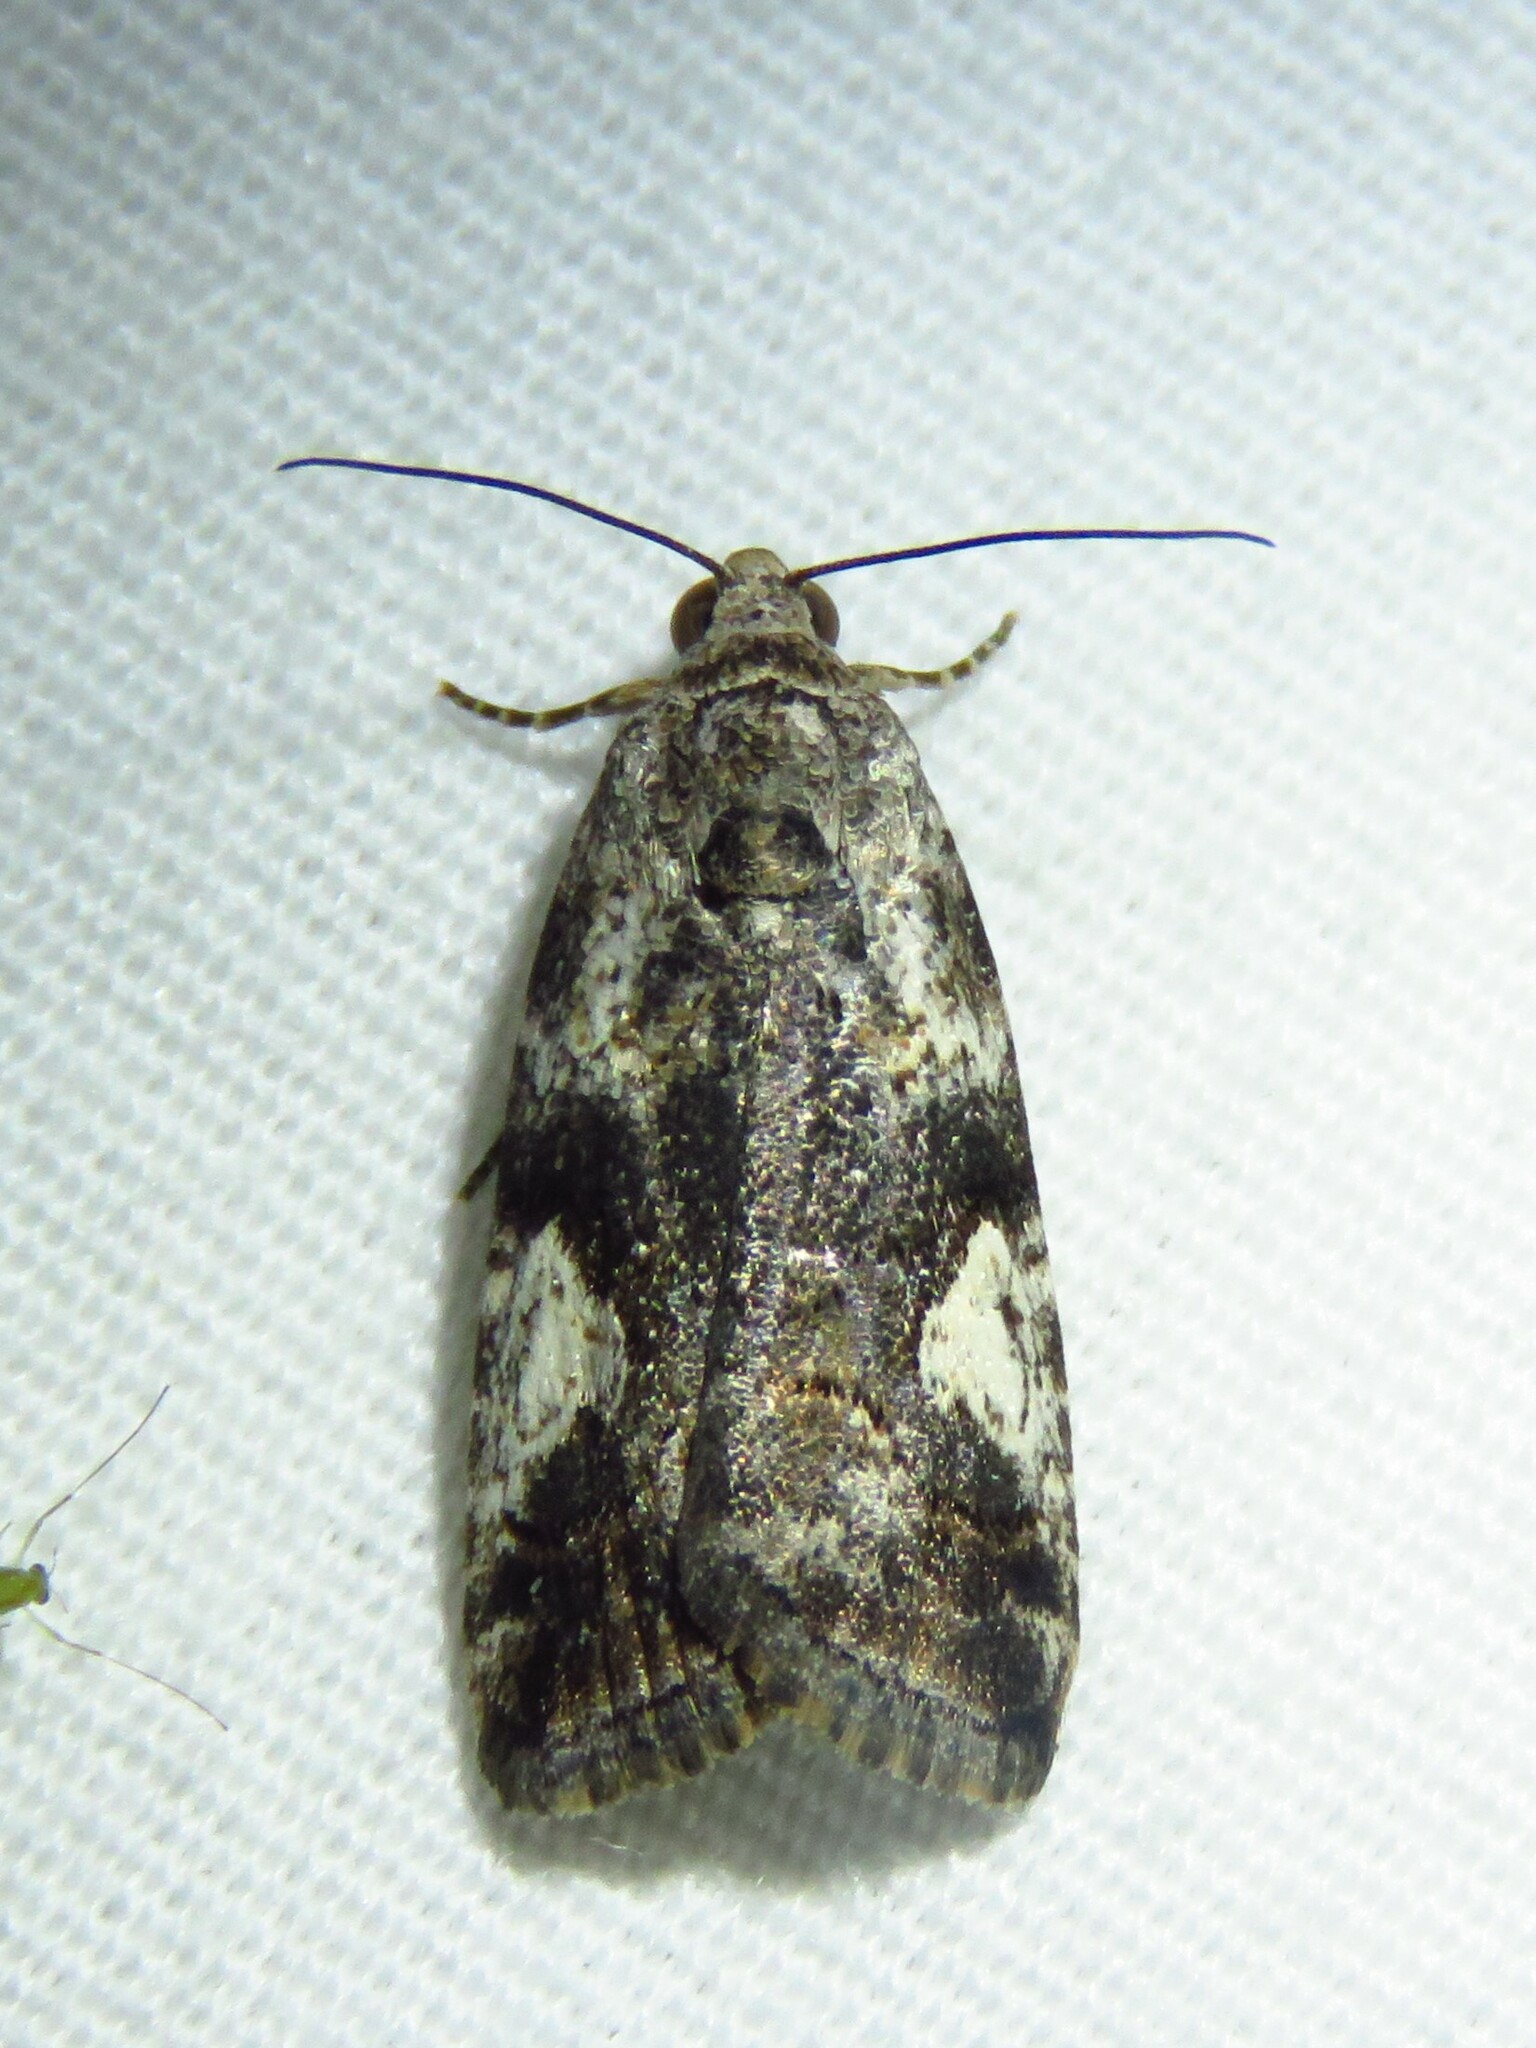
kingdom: Animalia
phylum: Arthropoda
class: Insecta
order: Lepidoptera
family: Noctuidae
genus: Metaponpneumata
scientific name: Metaponpneumata rogenhoferi
